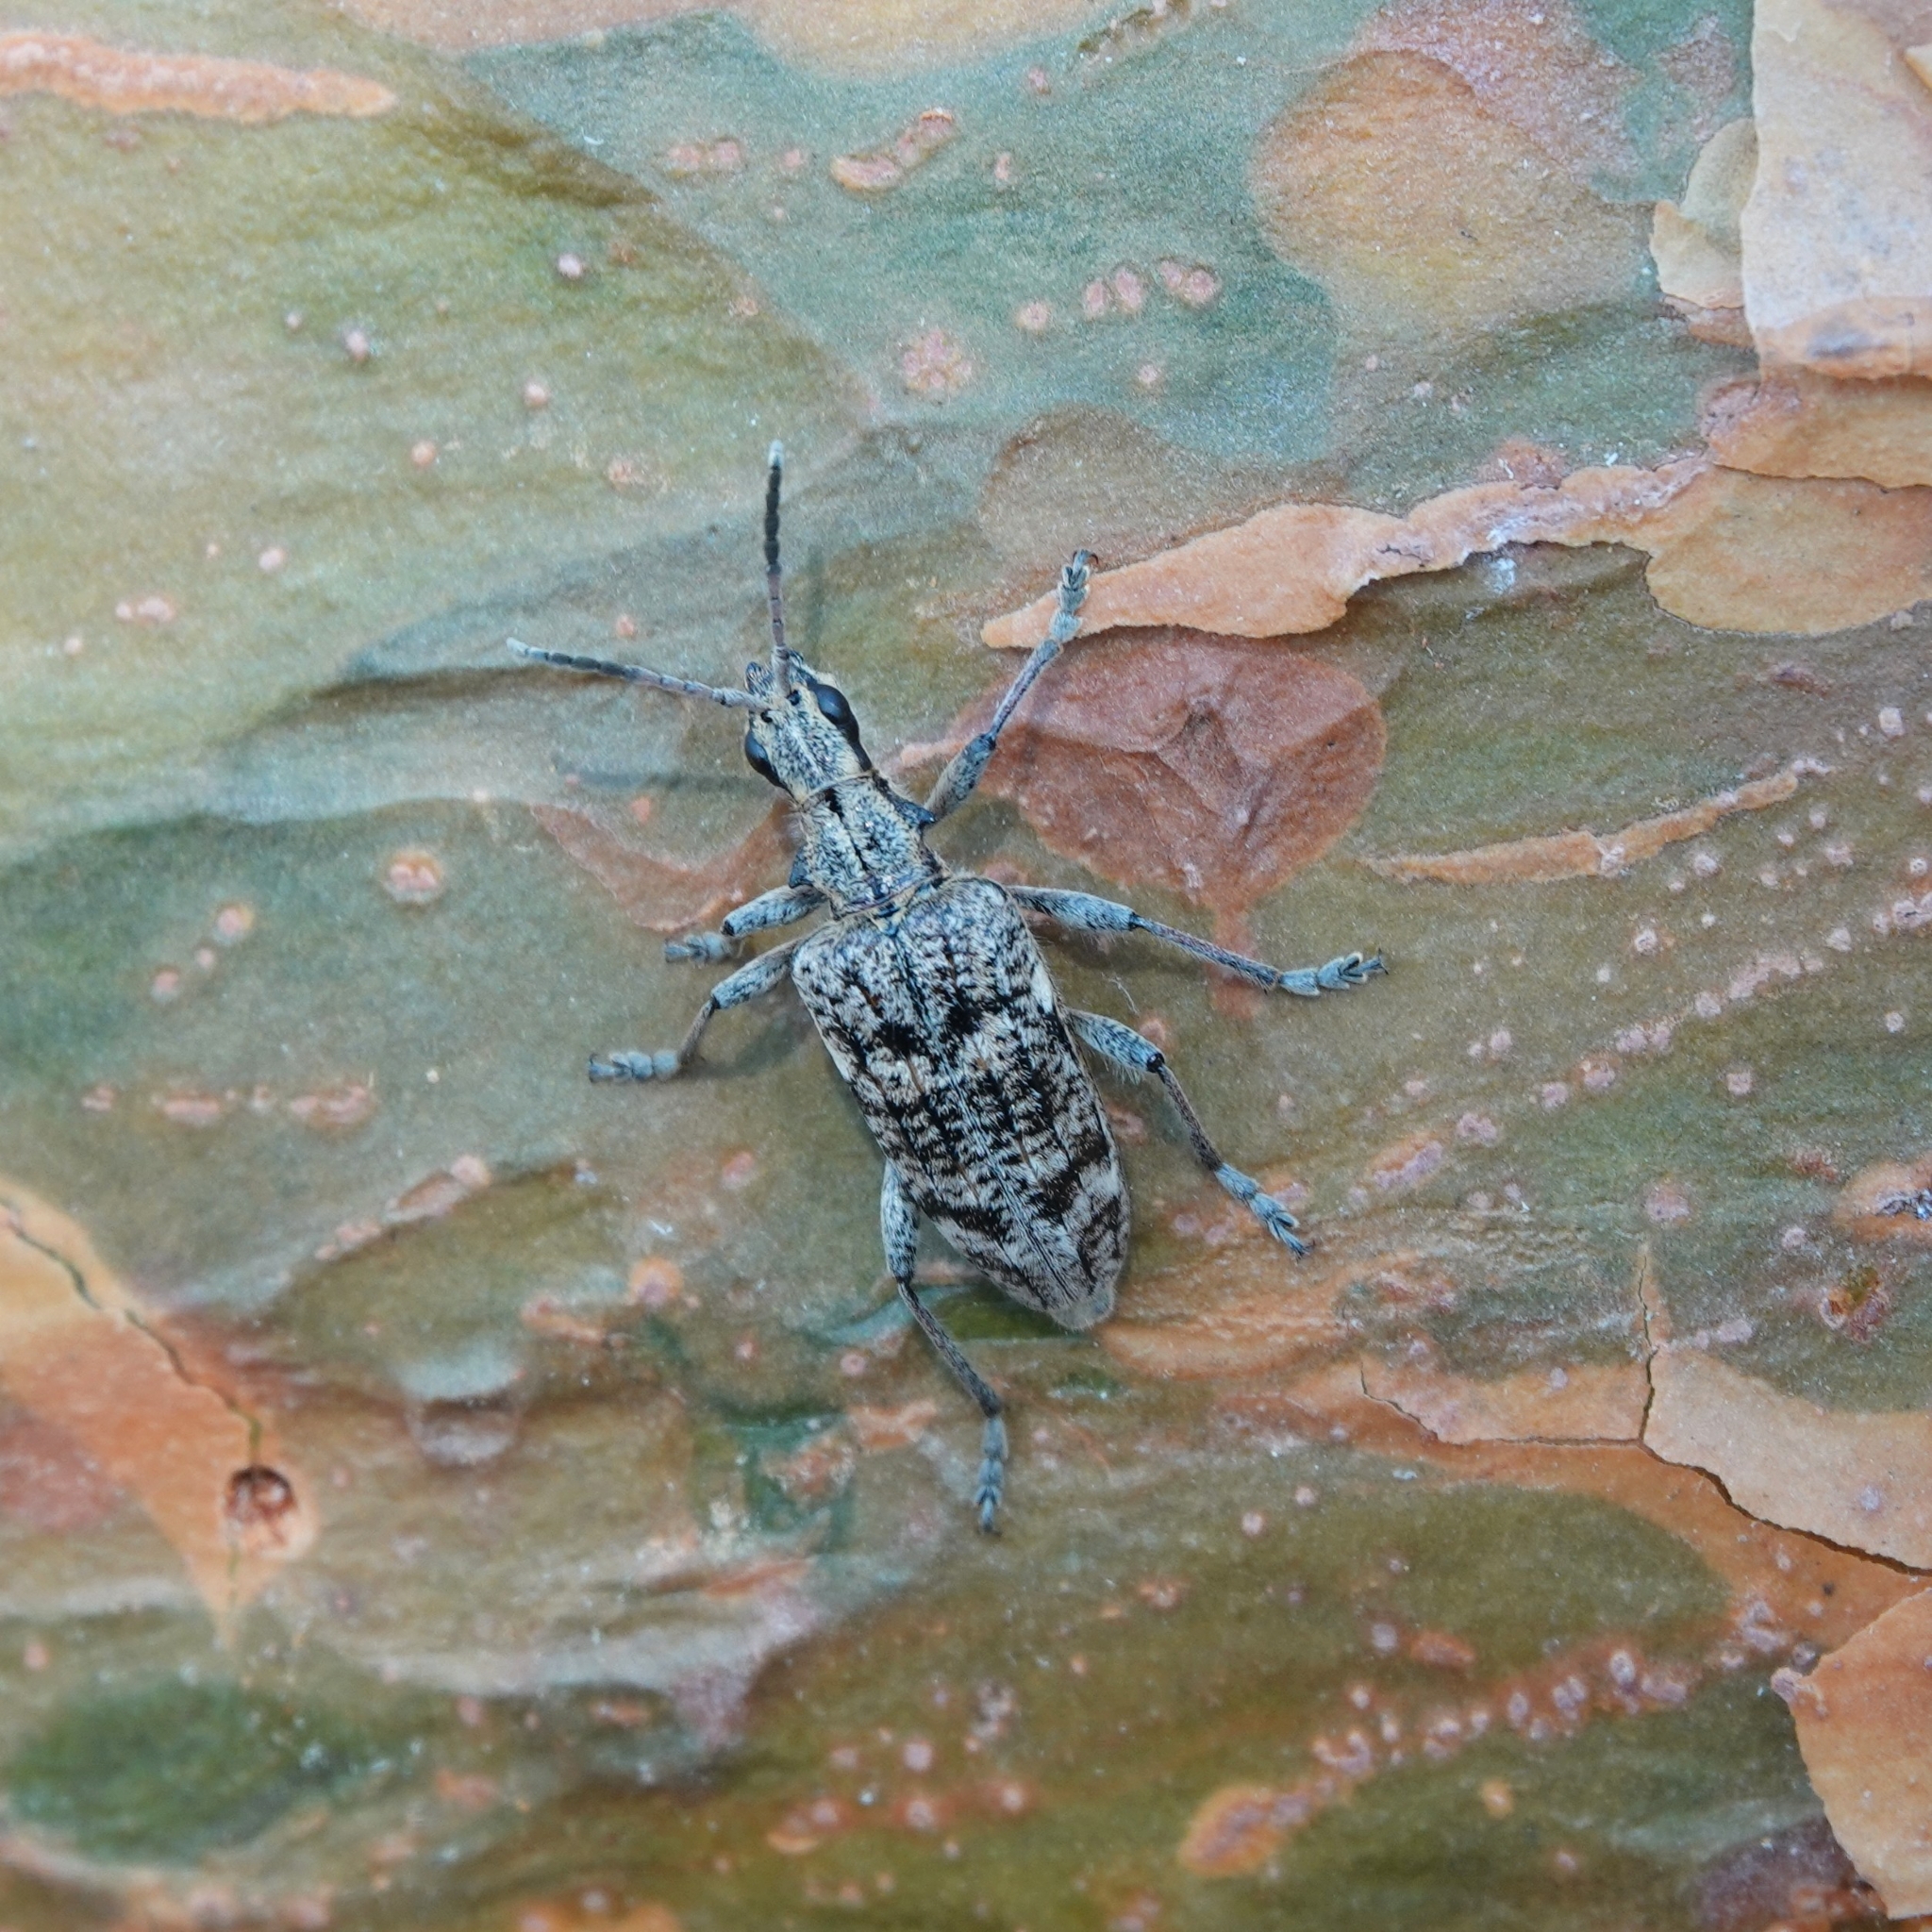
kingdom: Animalia
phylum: Arthropoda
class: Insecta
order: Coleoptera
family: Cerambycidae
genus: Rhagium
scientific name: Rhagium inquisitor
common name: Ribbed pine borer
